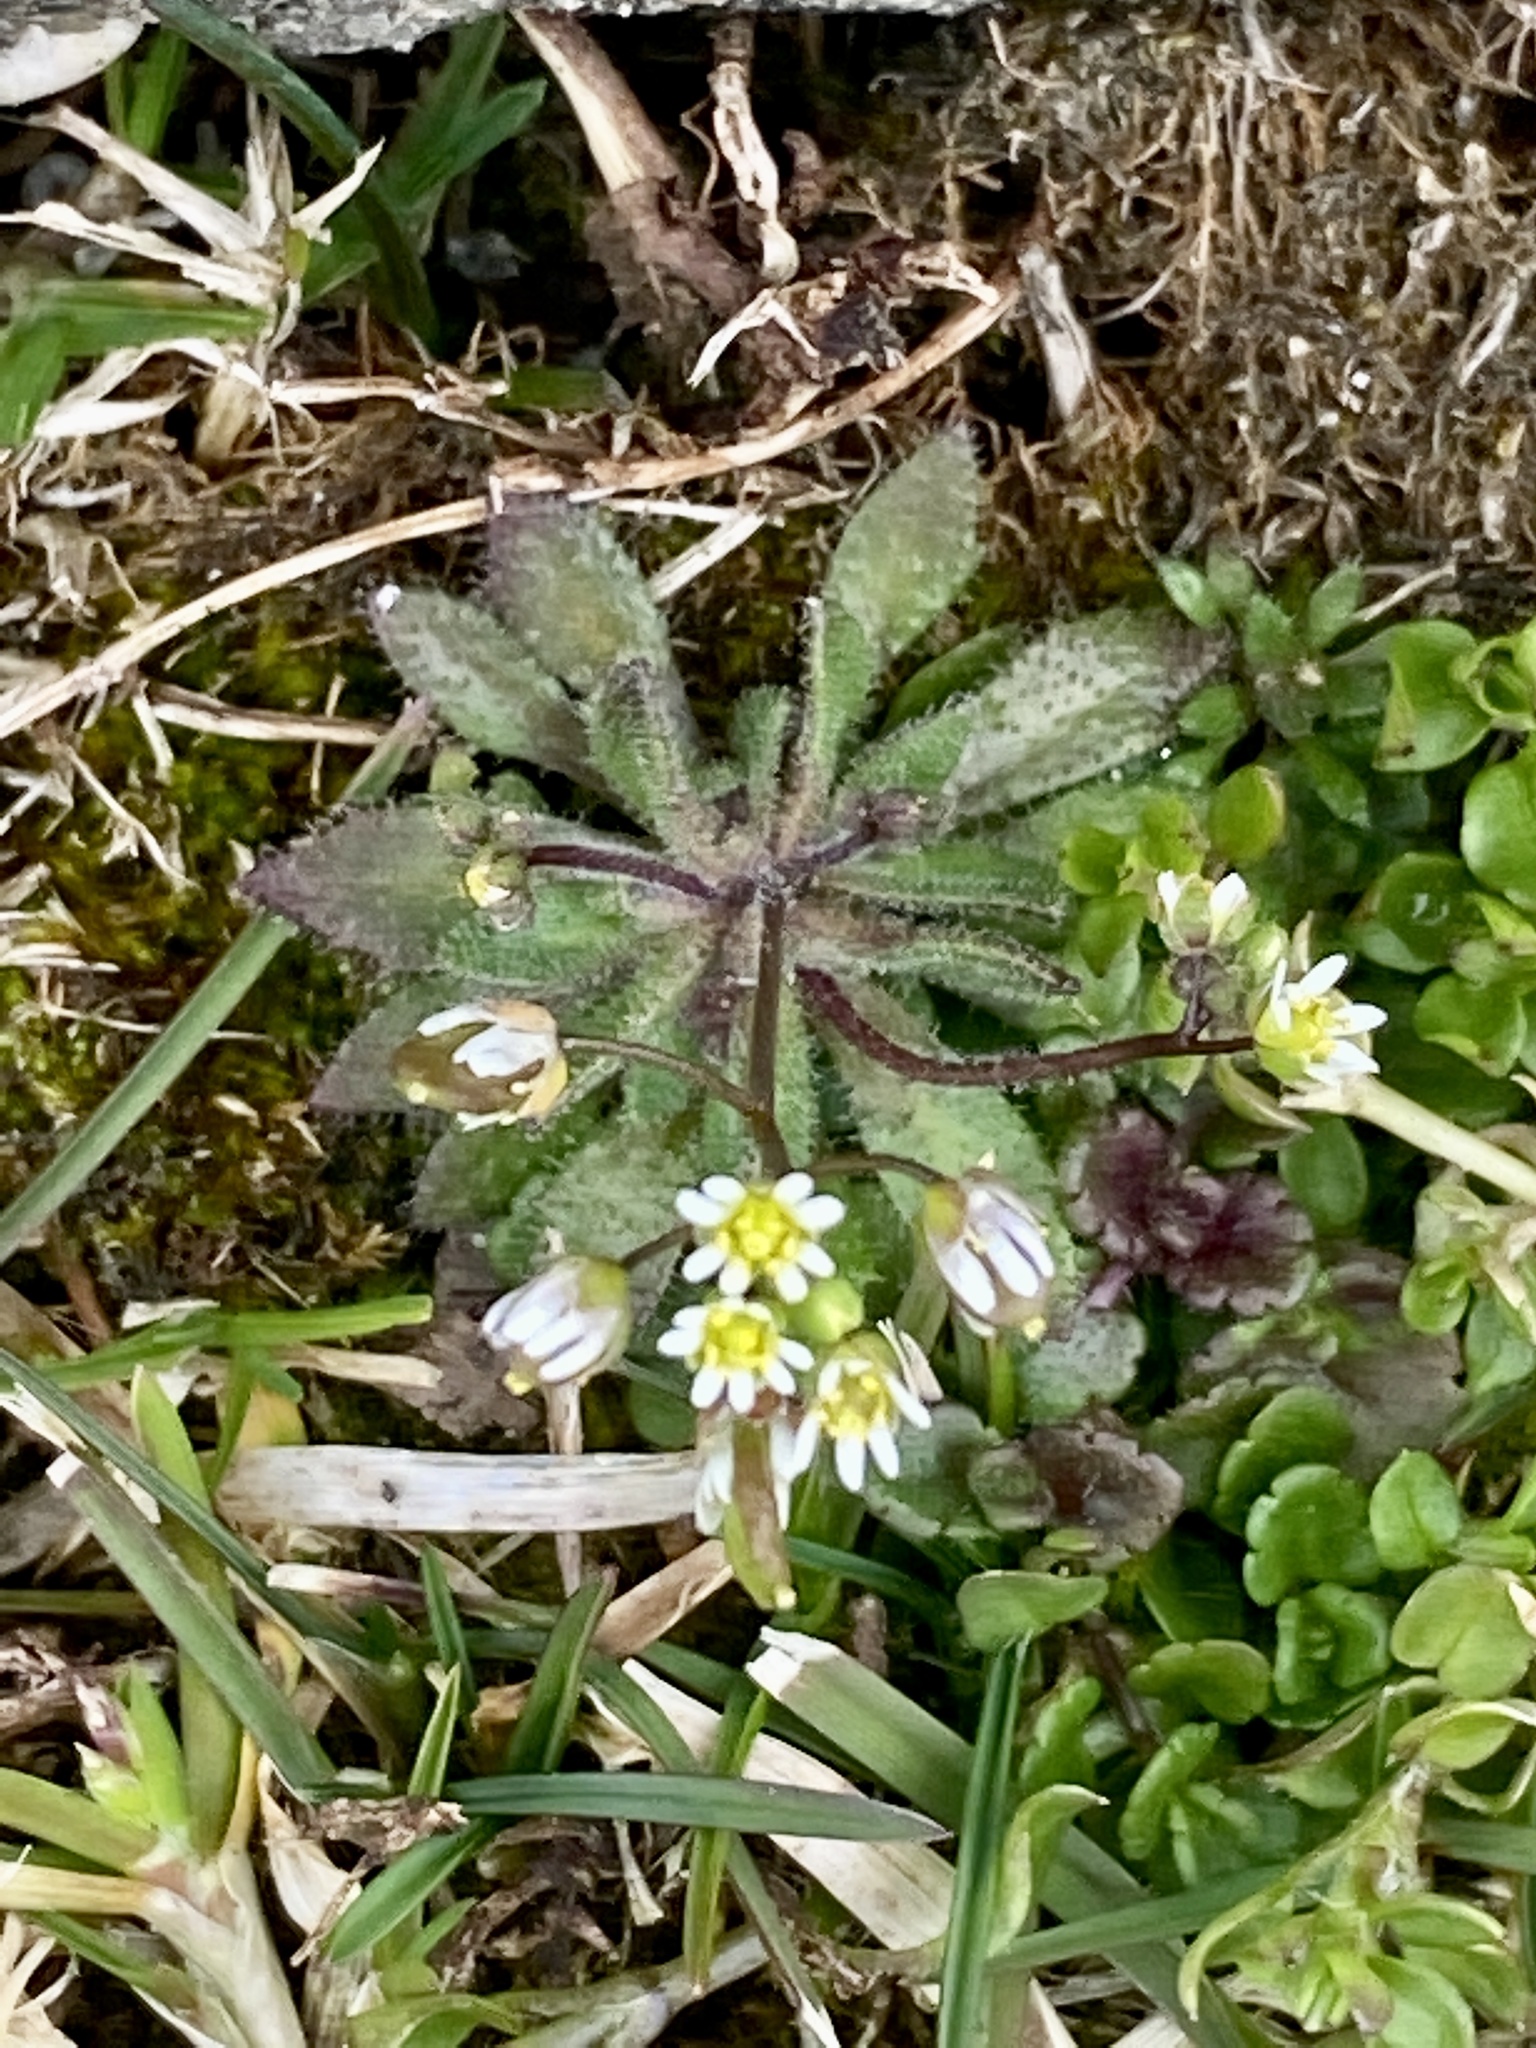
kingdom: Plantae
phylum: Tracheophyta
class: Magnoliopsida
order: Brassicales
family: Brassicaceae
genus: Draba
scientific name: Draba verna
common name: Spring draba
